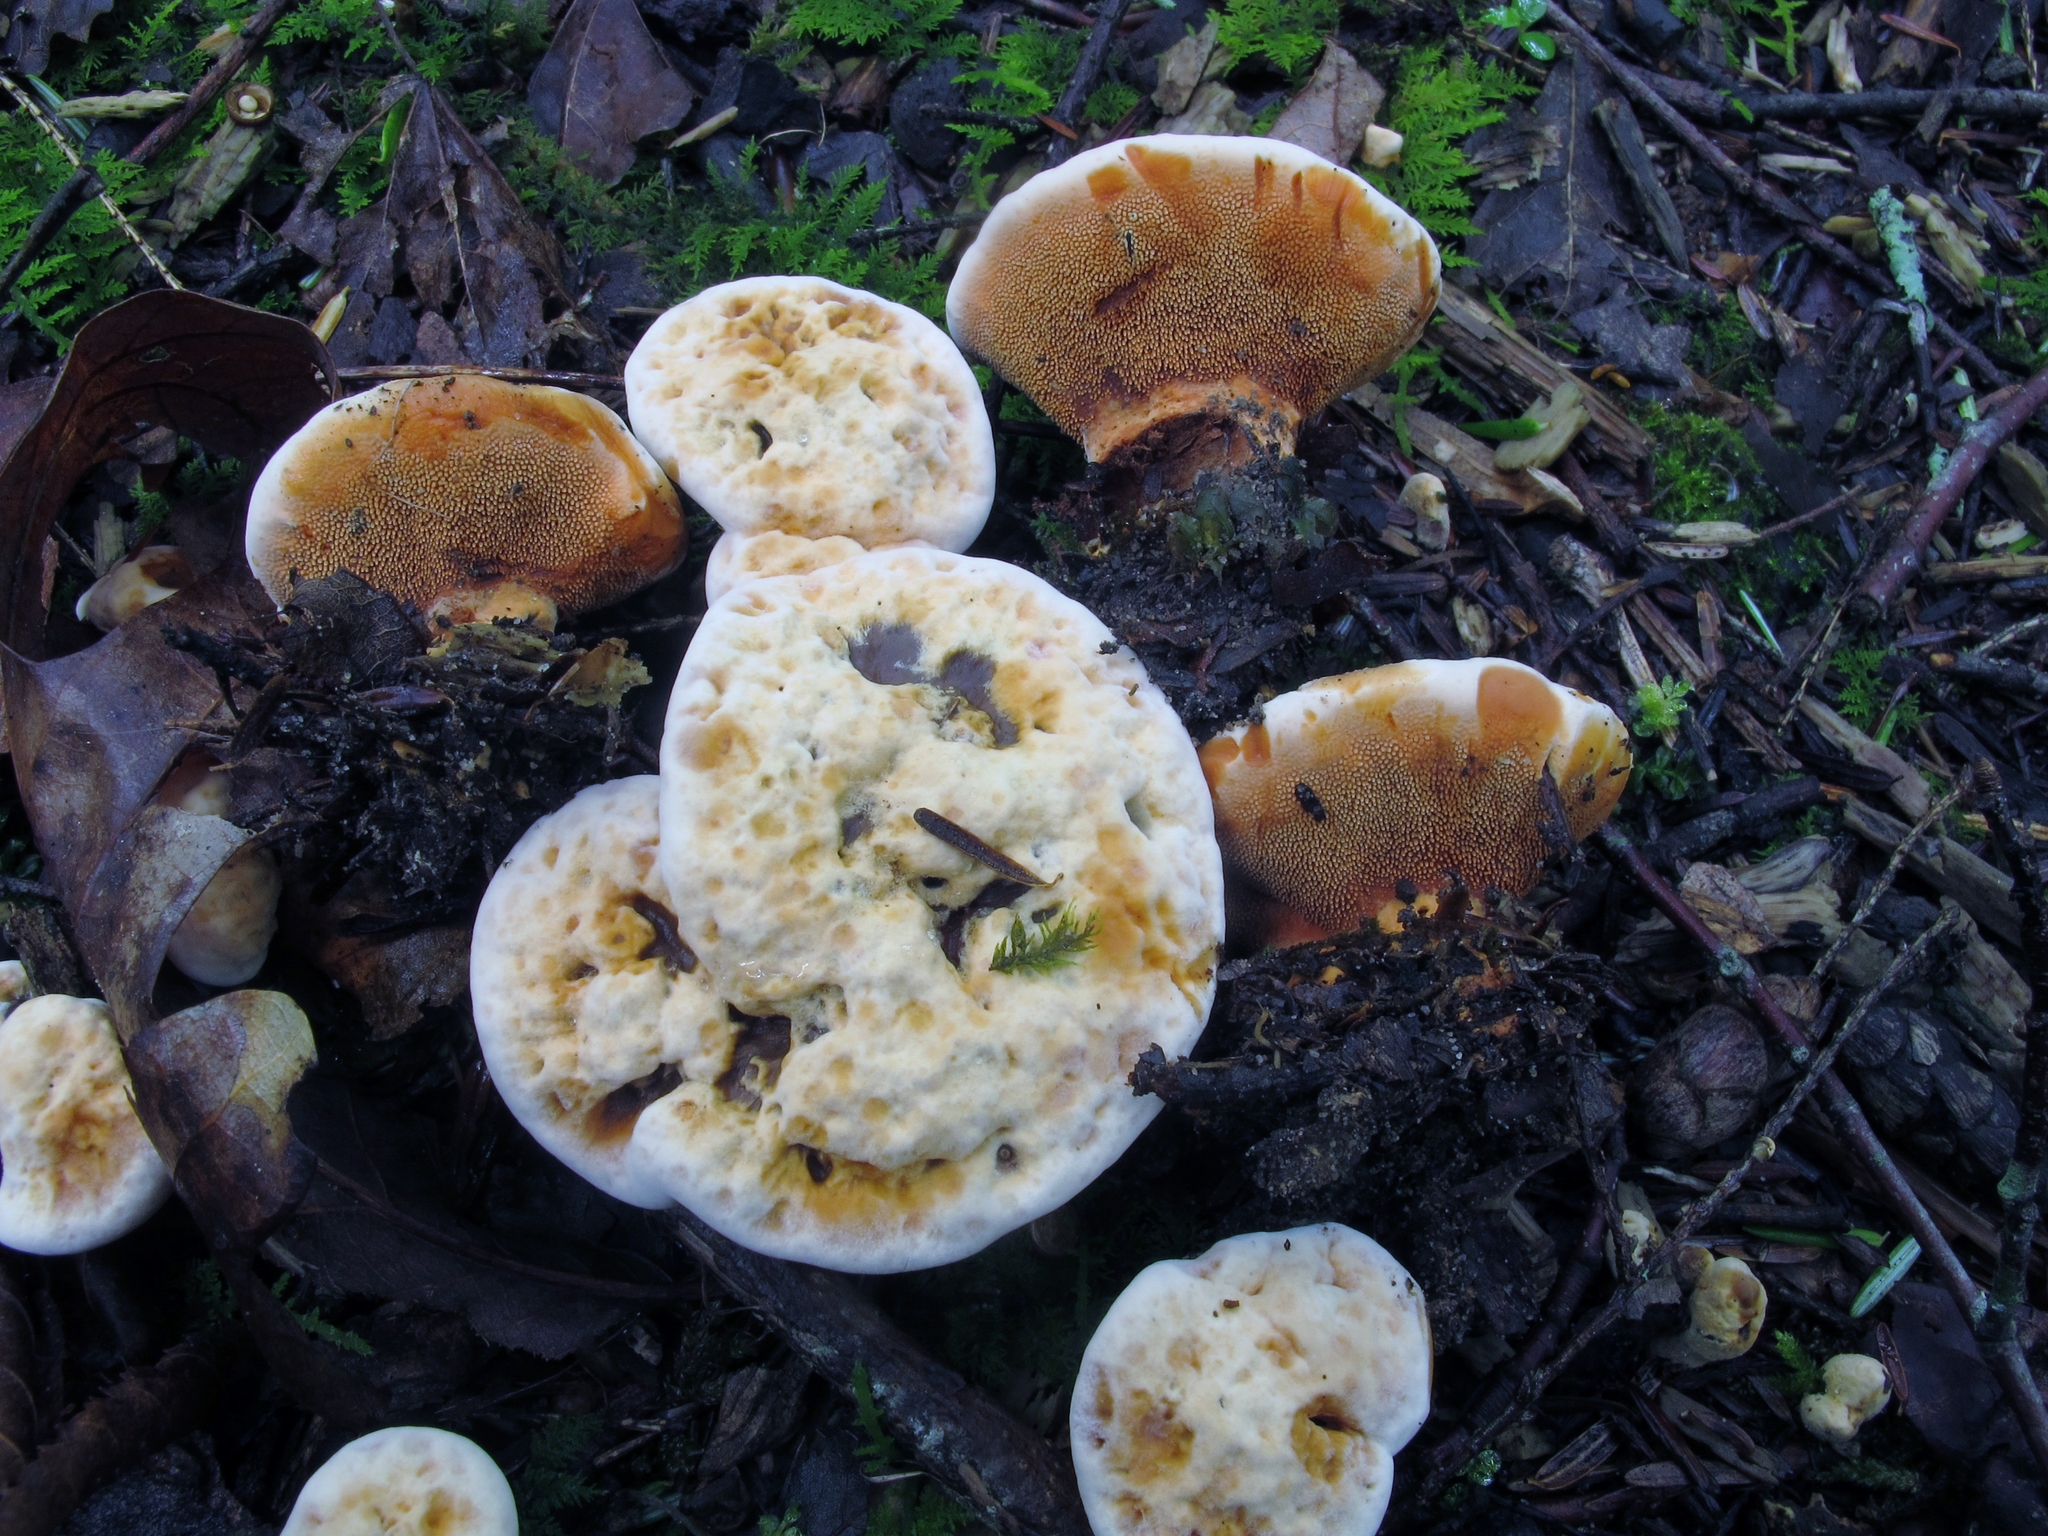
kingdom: Fungi
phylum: Basidiomycota
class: Agaricomycetes
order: Thelephorales
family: Bankeraceae
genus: Hydnellum
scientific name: Hydnellum aurantiacum
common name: Orange tooth
